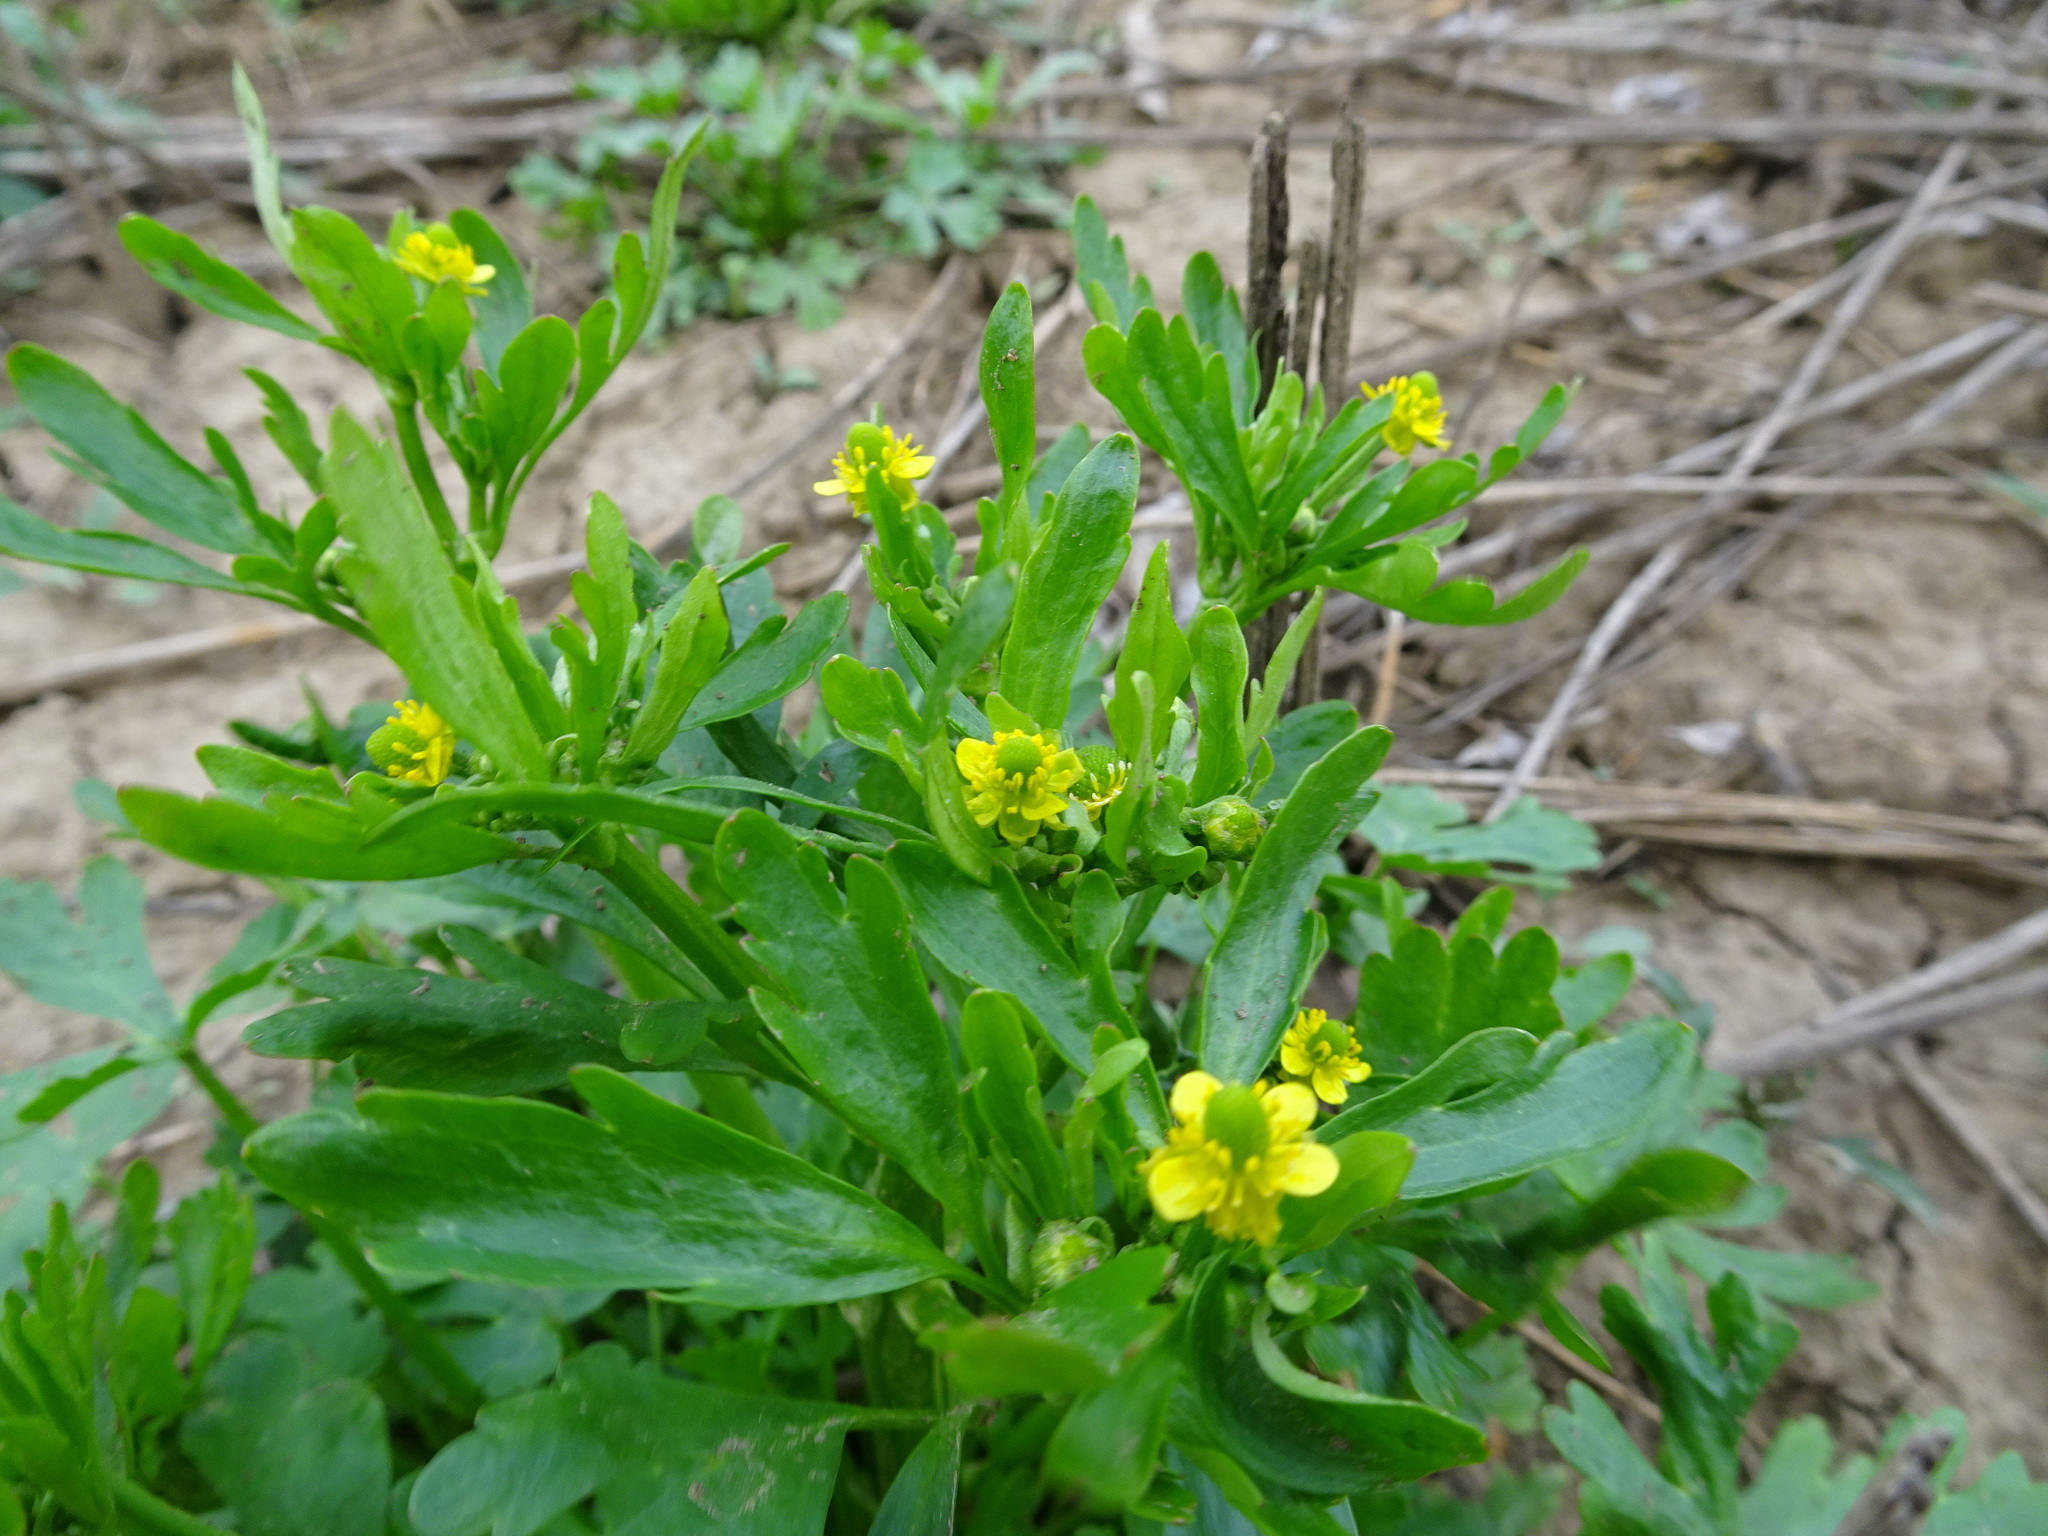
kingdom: Plantae
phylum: Tracheophyta
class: Magnoliopsida
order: Ranunculales
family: Ranunculaceae
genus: Ranunculus
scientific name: Ranunculus sceleratus
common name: Celery-leaved buttercup
